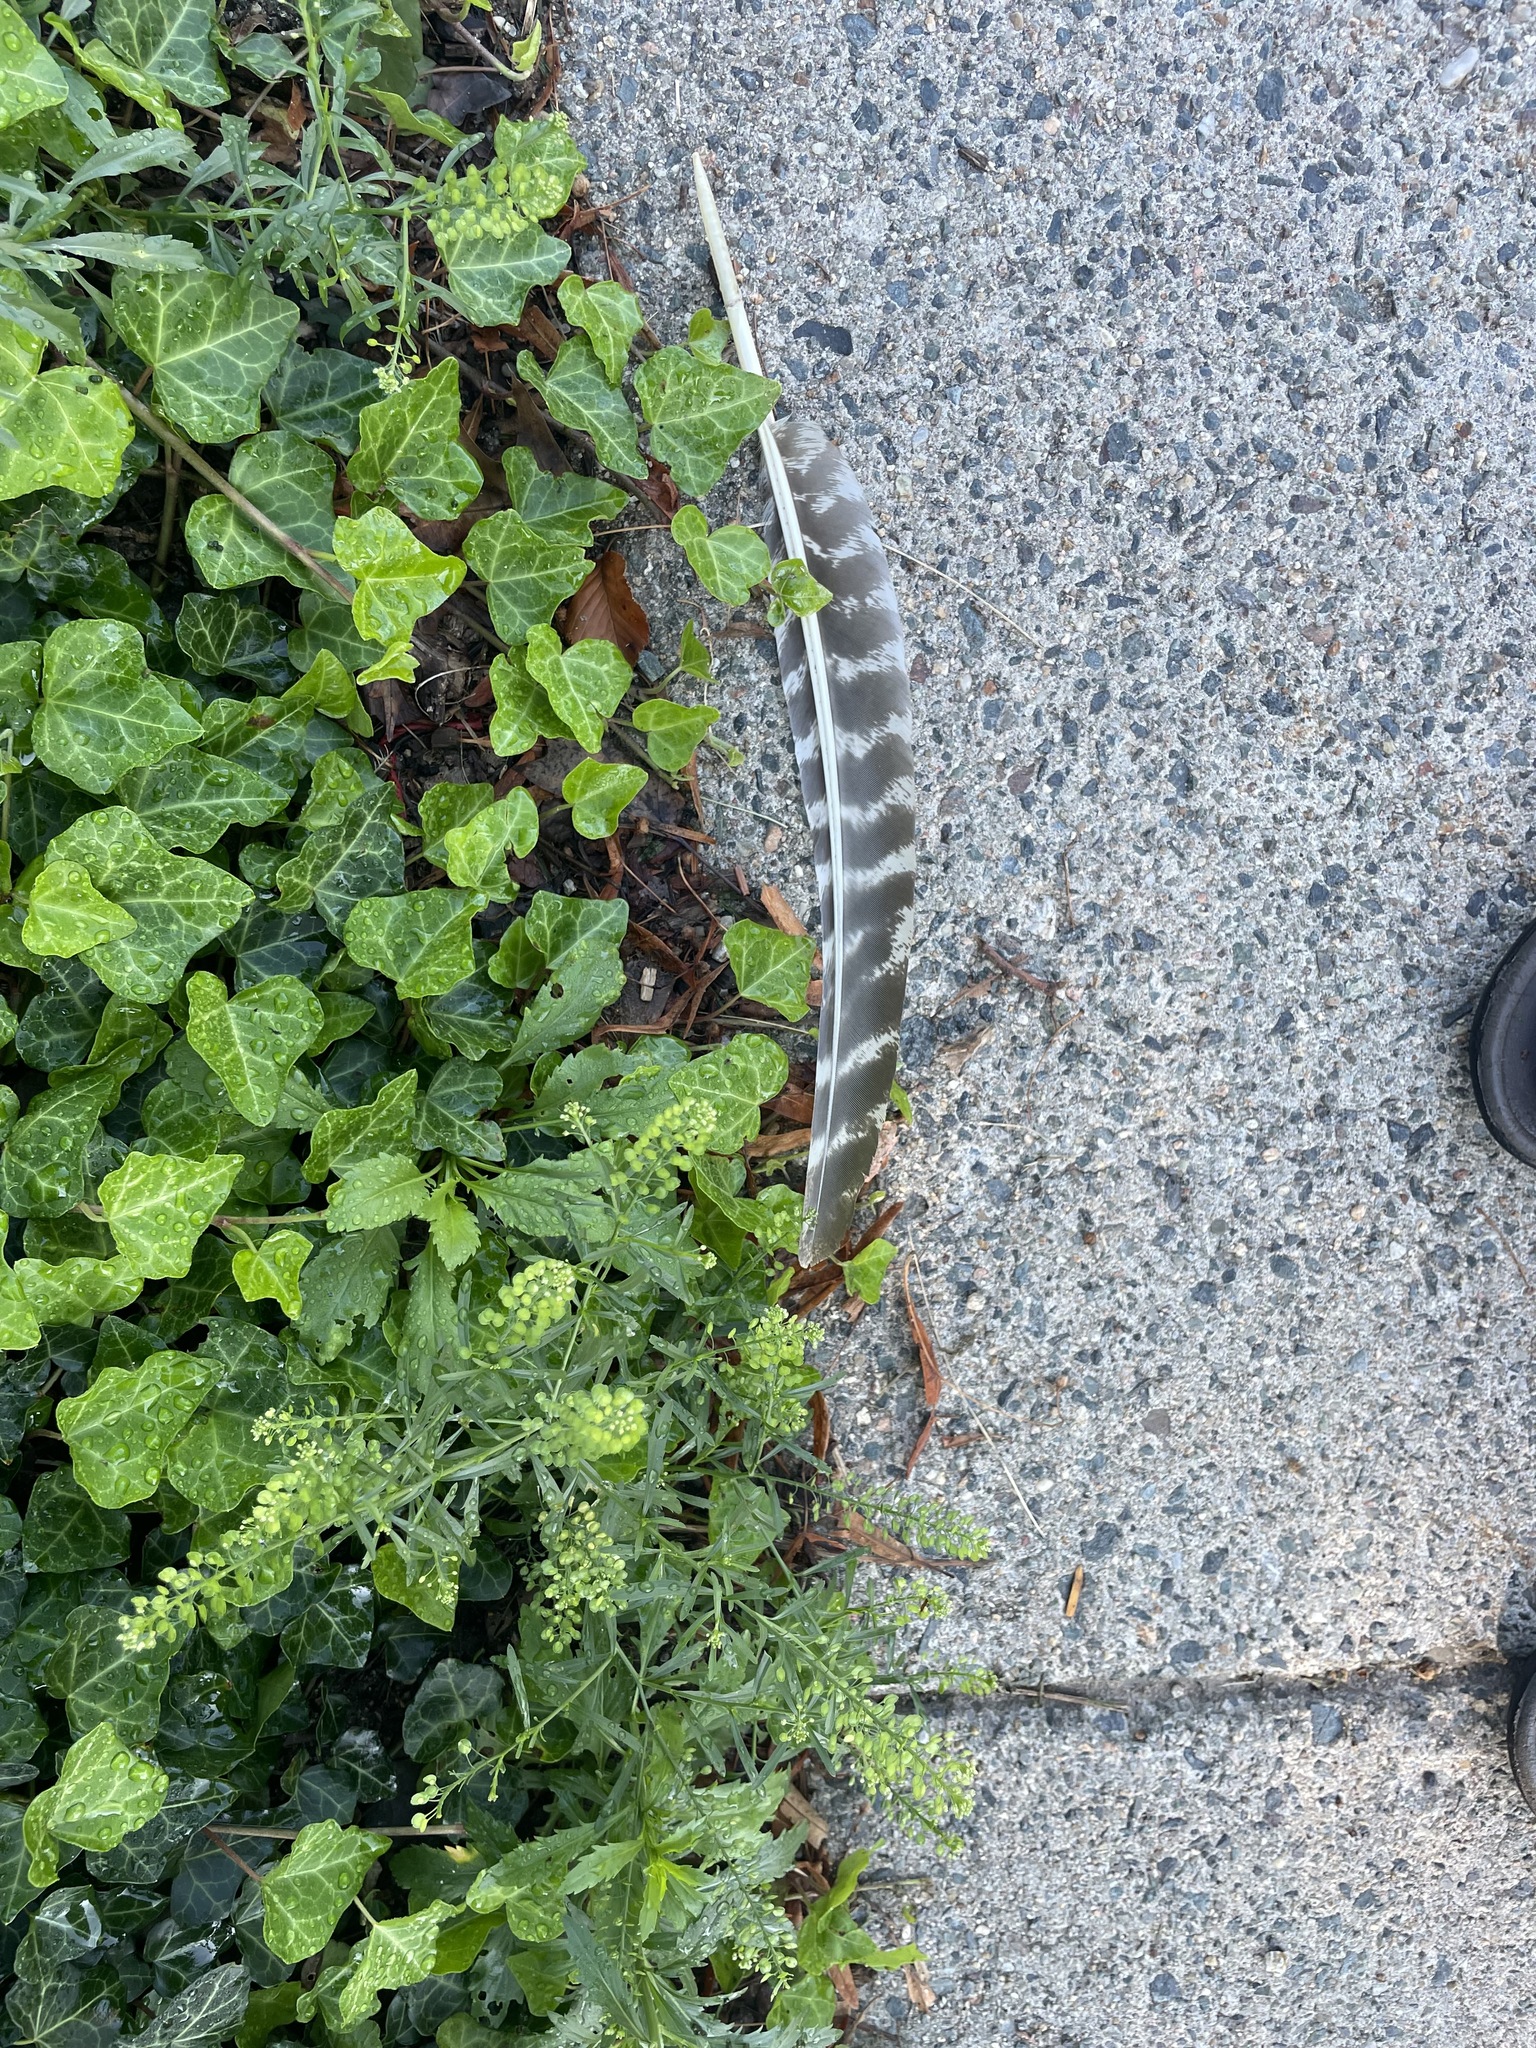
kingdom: Animalia
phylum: Chordata
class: Aves
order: Galliformes
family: Phasianidae
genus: Meleagris
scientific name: Meleagris gallopavo
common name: Wild turkey
